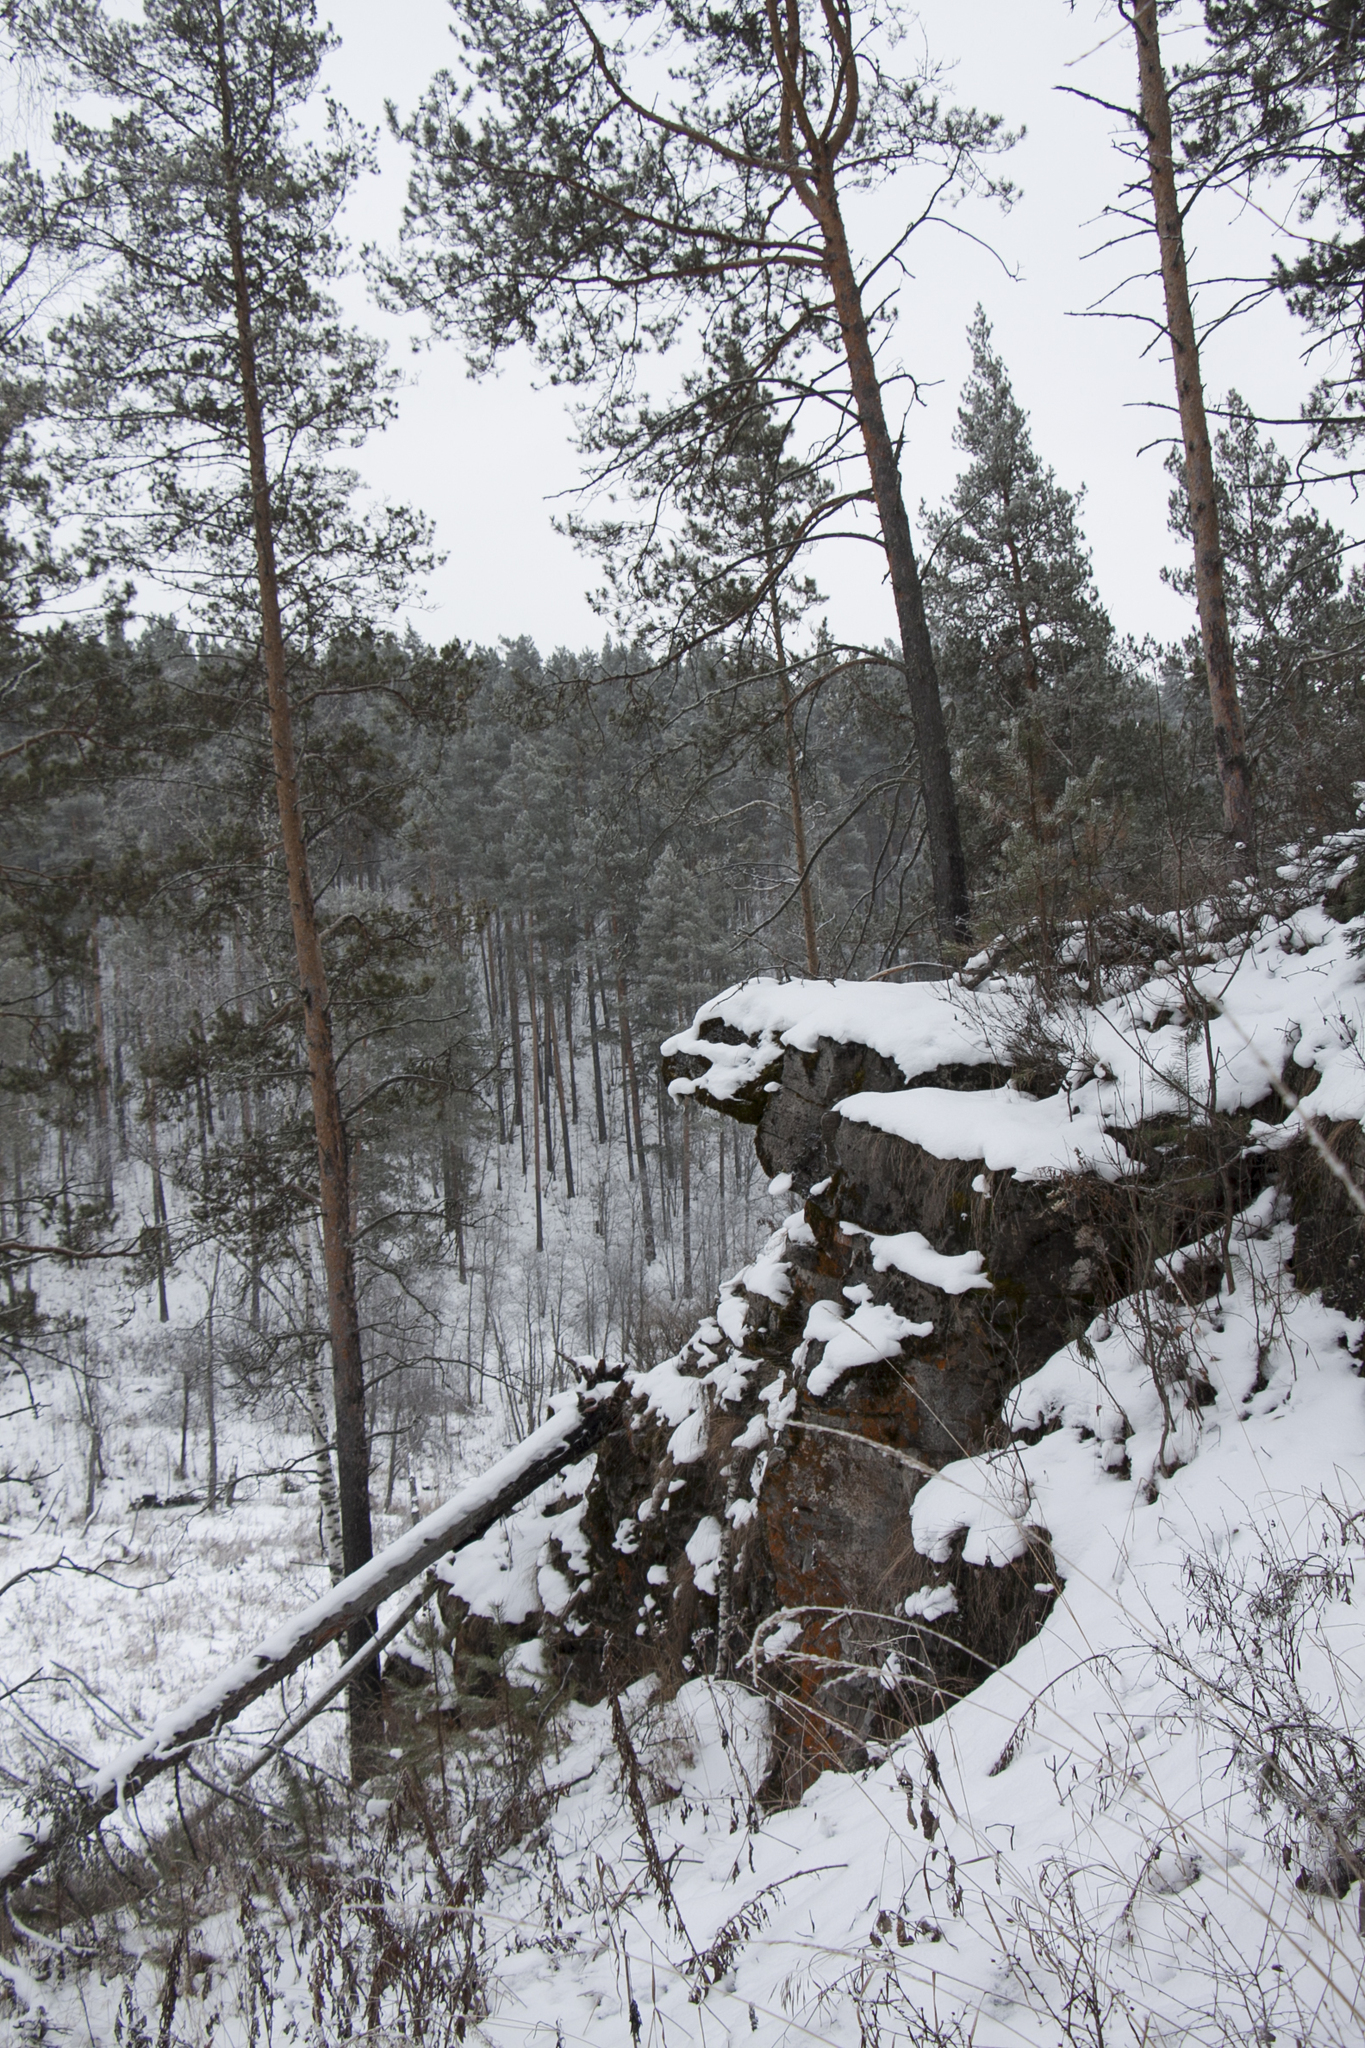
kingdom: Plantae
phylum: Tracheophyta
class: Pinopsida
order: Pinales
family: Pinaceae
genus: Pinus
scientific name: Pinus sylvestris
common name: Scots pine
